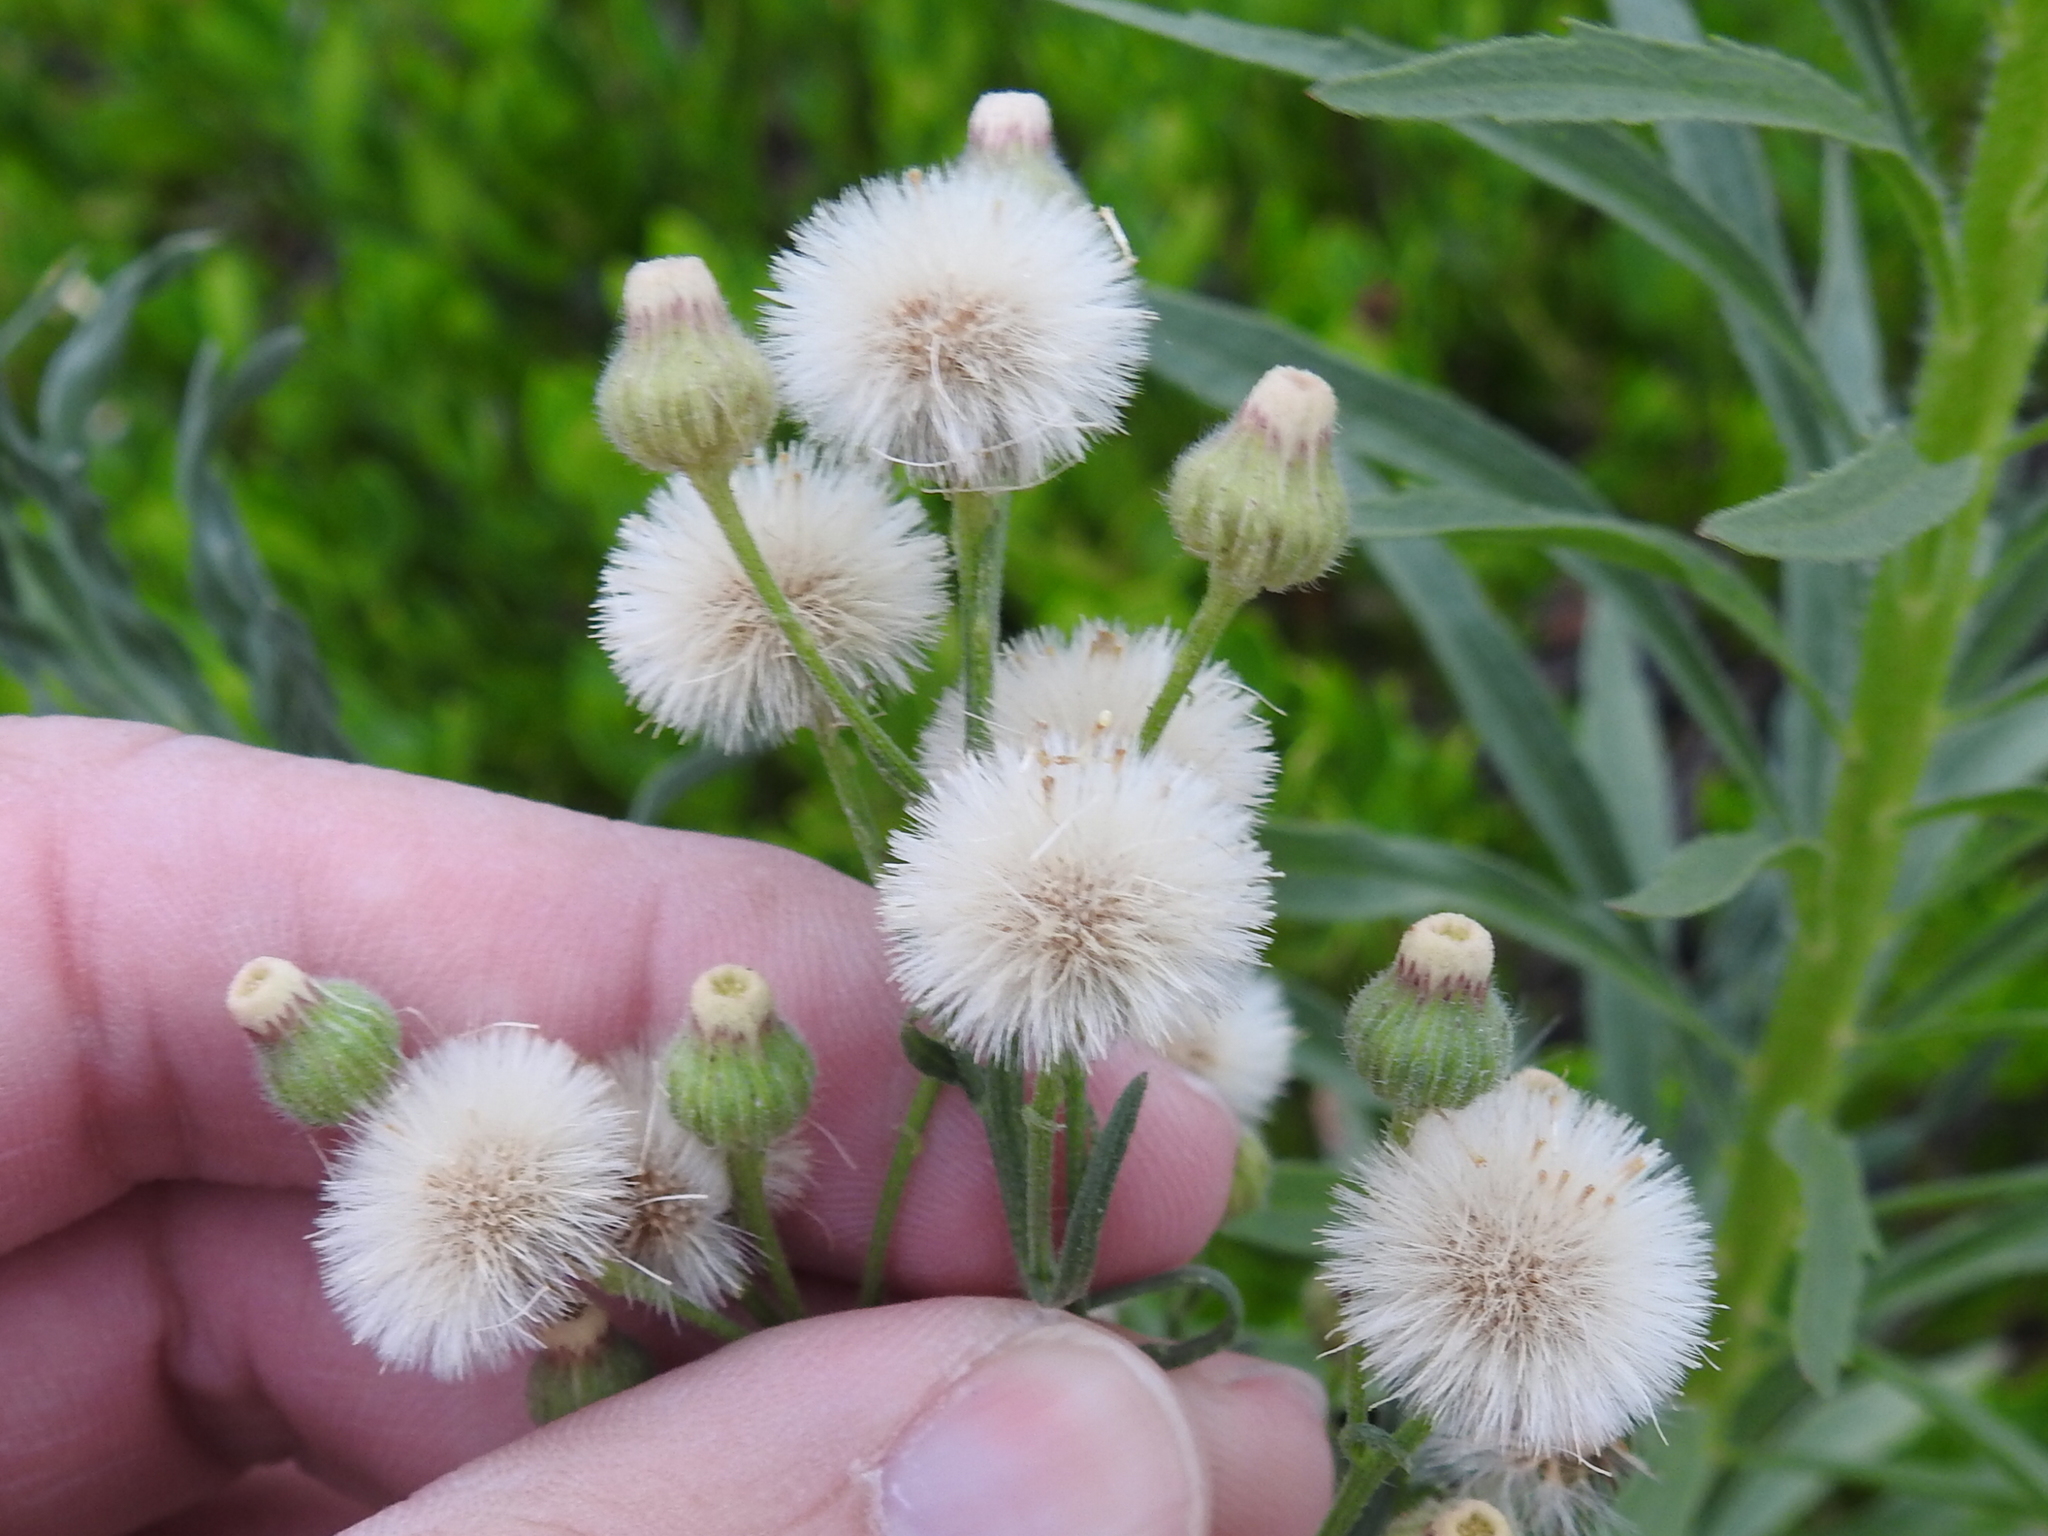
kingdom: Plantae
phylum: Tracheophyta
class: Magnoliopsida
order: Asterales
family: Asteraceae
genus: Erigeron
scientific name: Erigeron bonariensis
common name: Argentine fleabane
